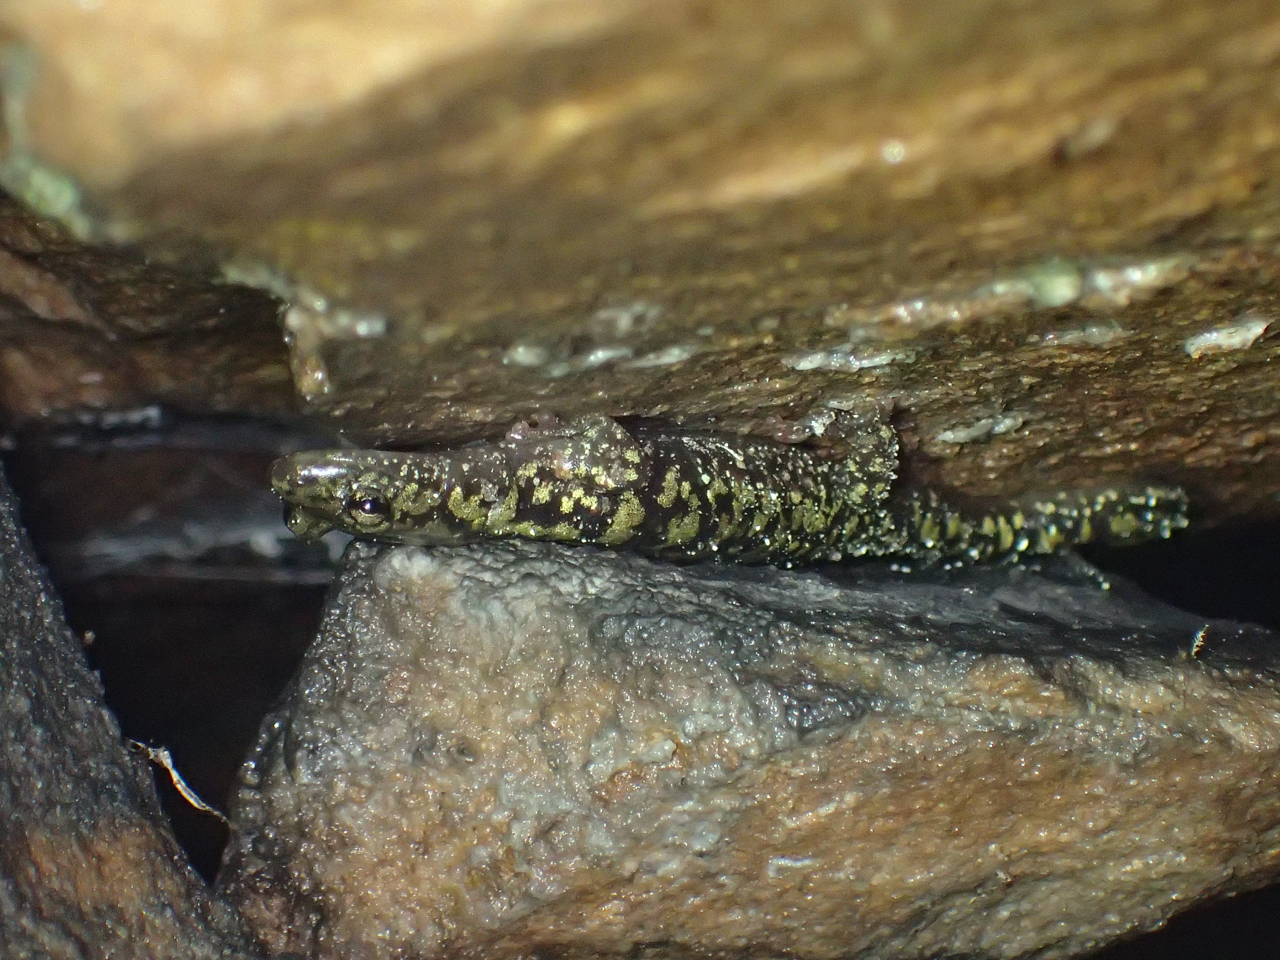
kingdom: Animalia
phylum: Chordata
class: Amphibia
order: Caudata
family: Plethodontidae
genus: Aneides
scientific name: Aneides aeneus
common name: Green salamander
